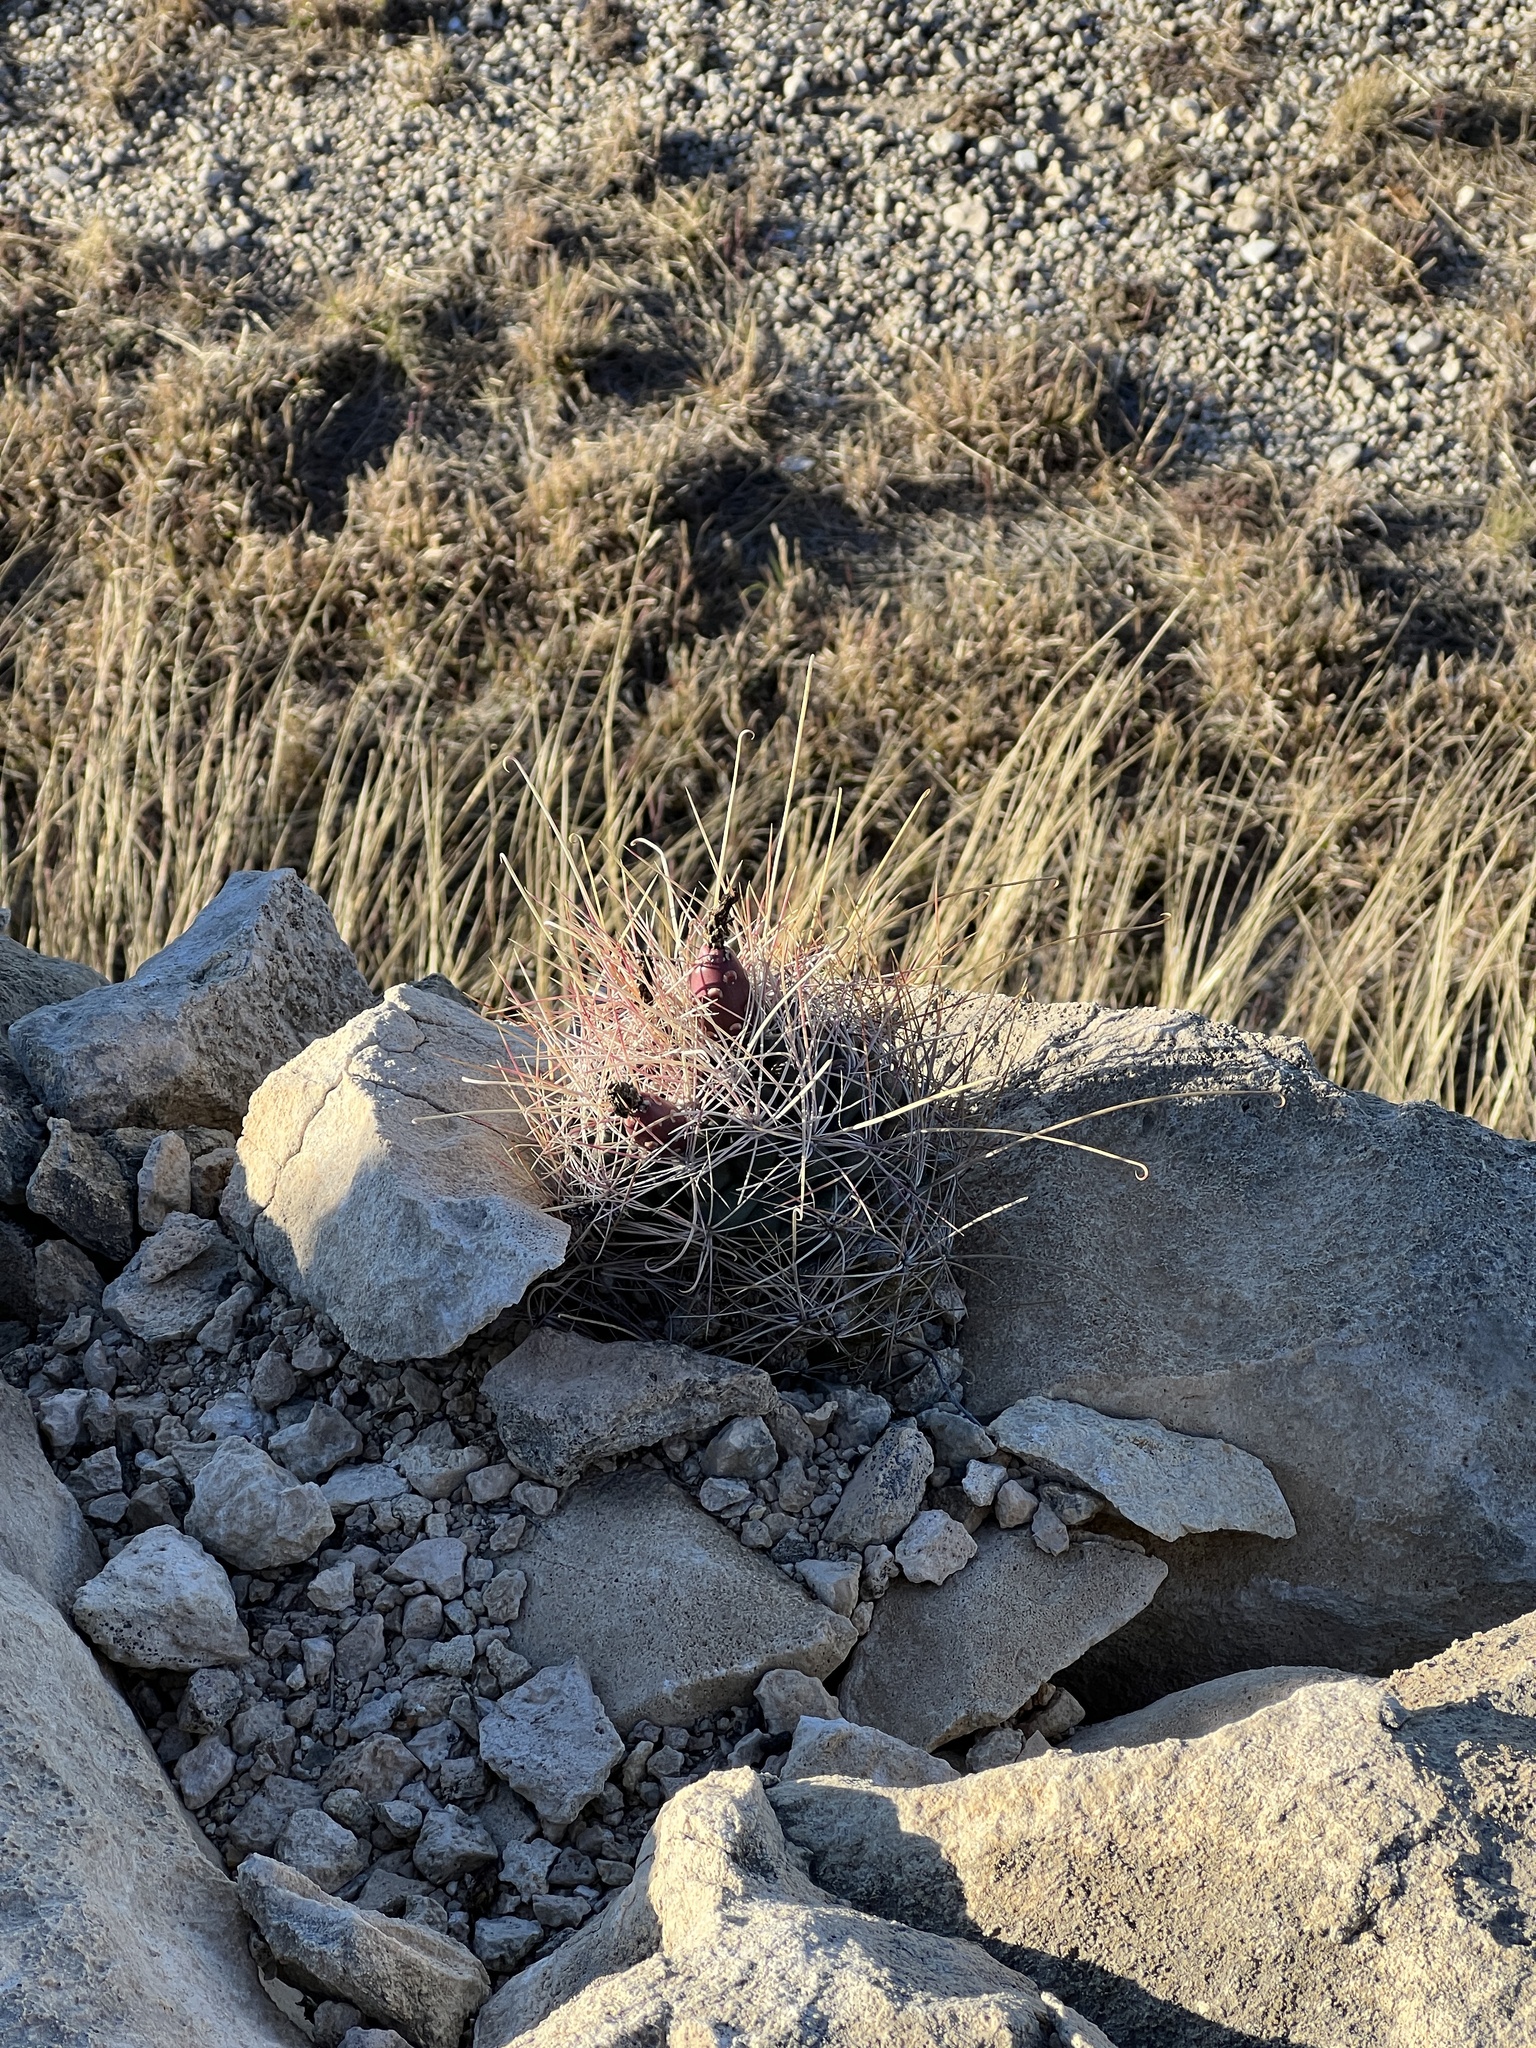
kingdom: Plantae
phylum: Tracheophyta
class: Magnoliopsida
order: Caryophyllales
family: Cactaceae
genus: Bisnaga
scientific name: Bisnaga hamatacantha
